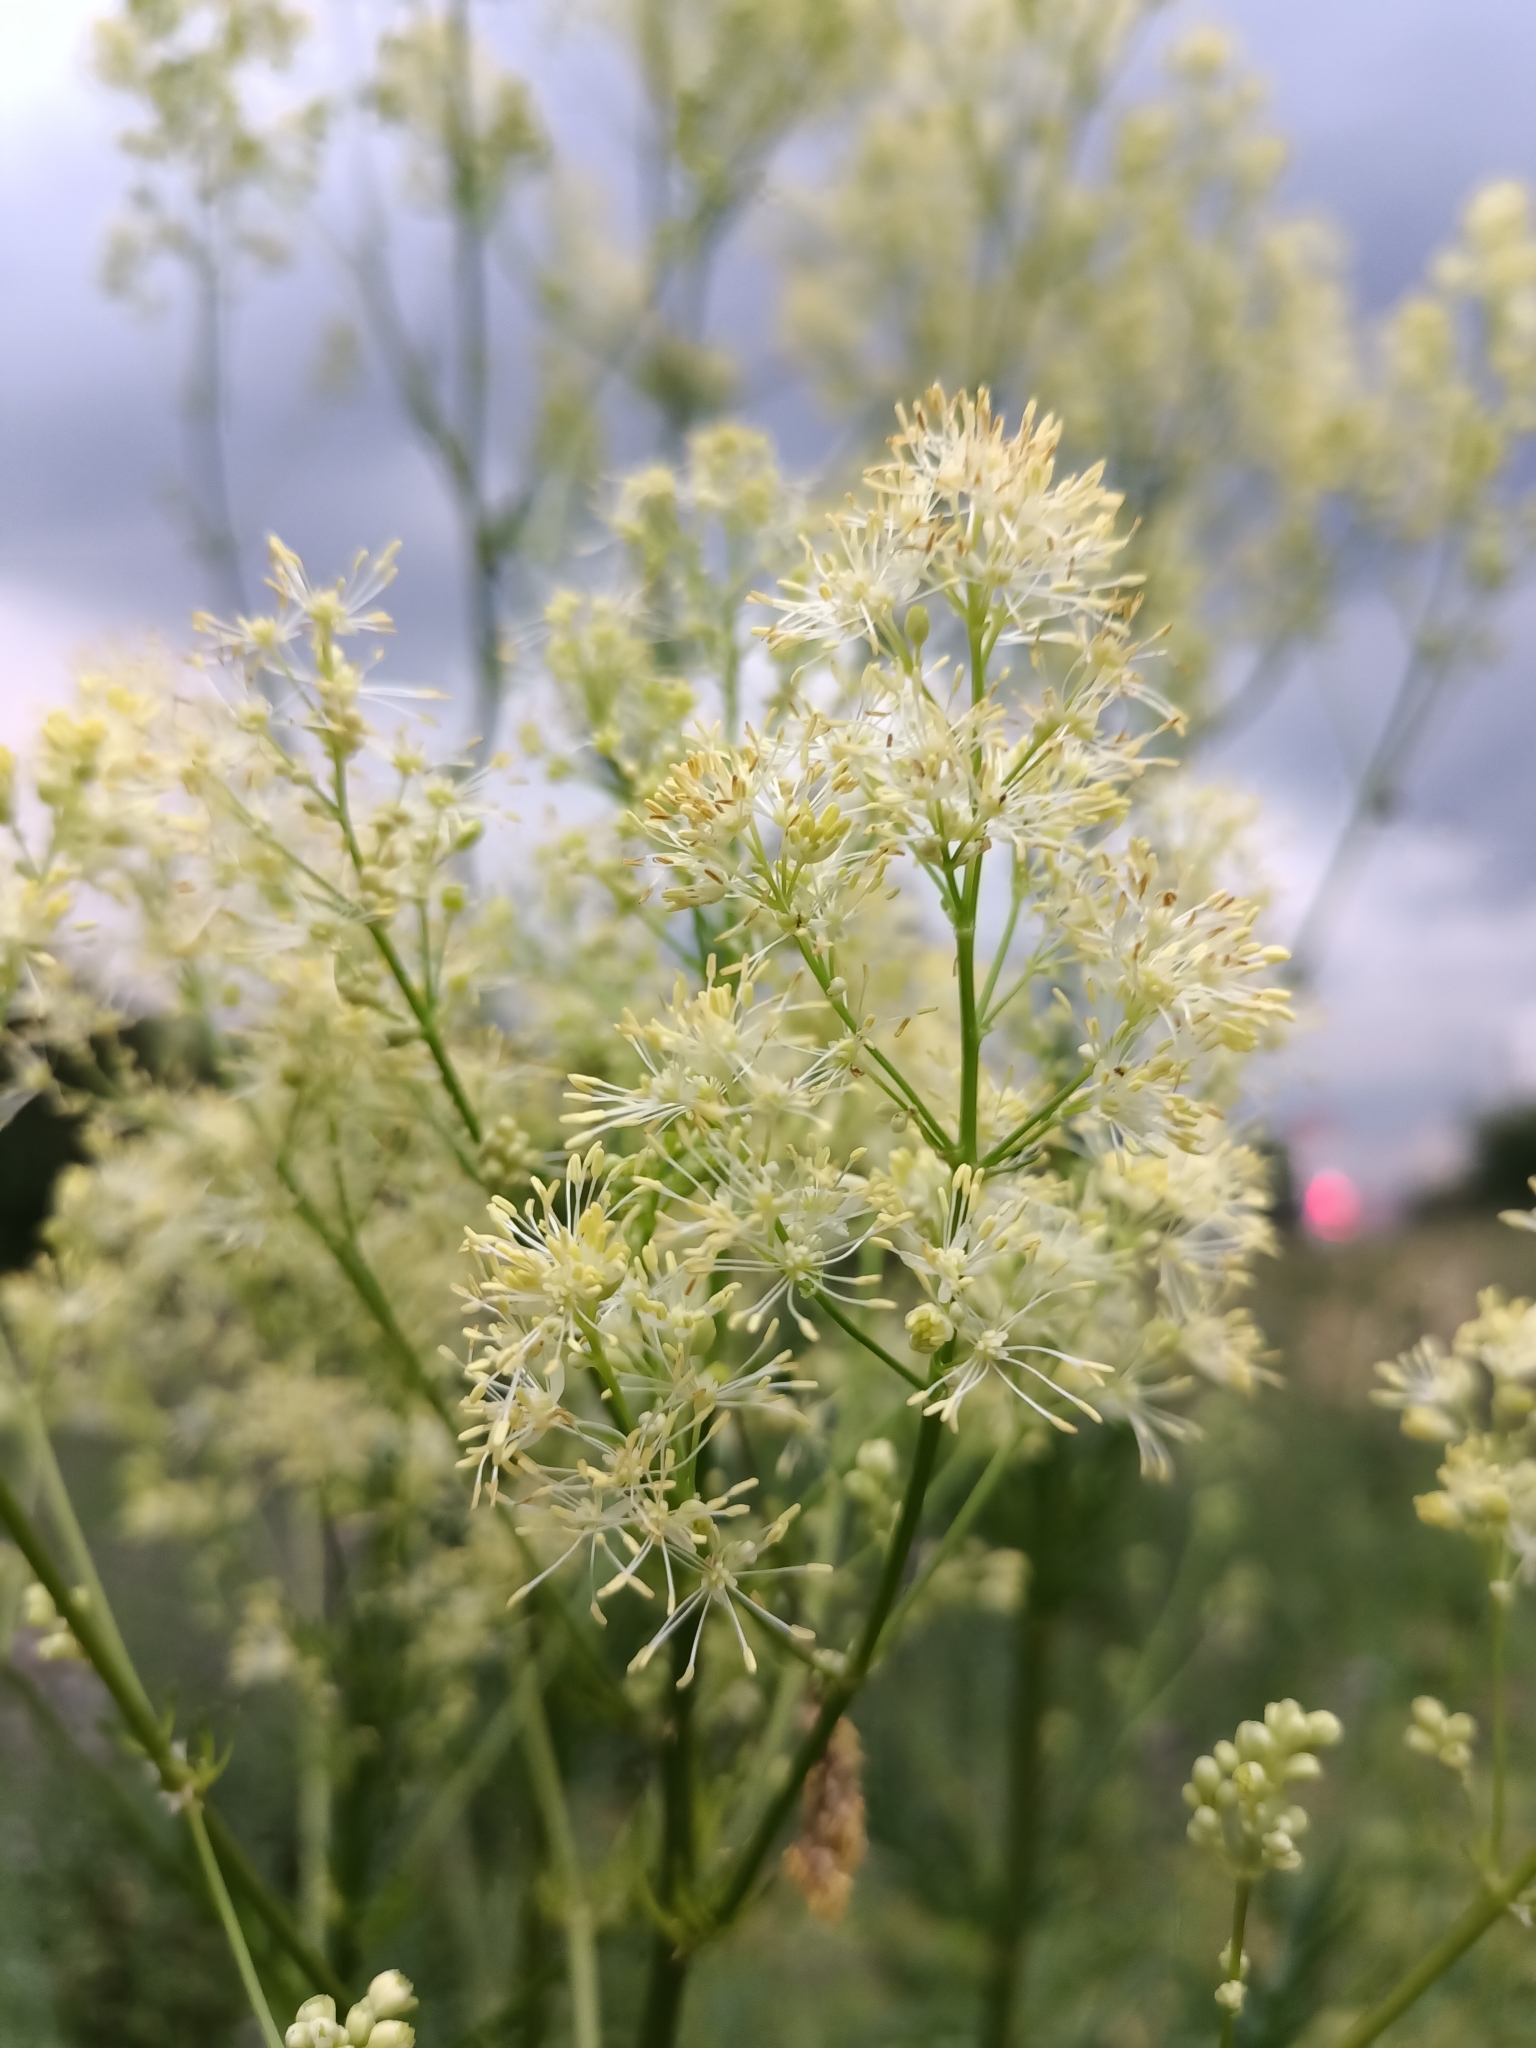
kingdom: Plantae
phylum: Tracheophyta
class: Magnoliopsida
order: Ranunculales
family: Ranunculaceae
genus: Thalictrum
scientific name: Thalictrum lucidum
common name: Shining meadow-rue
